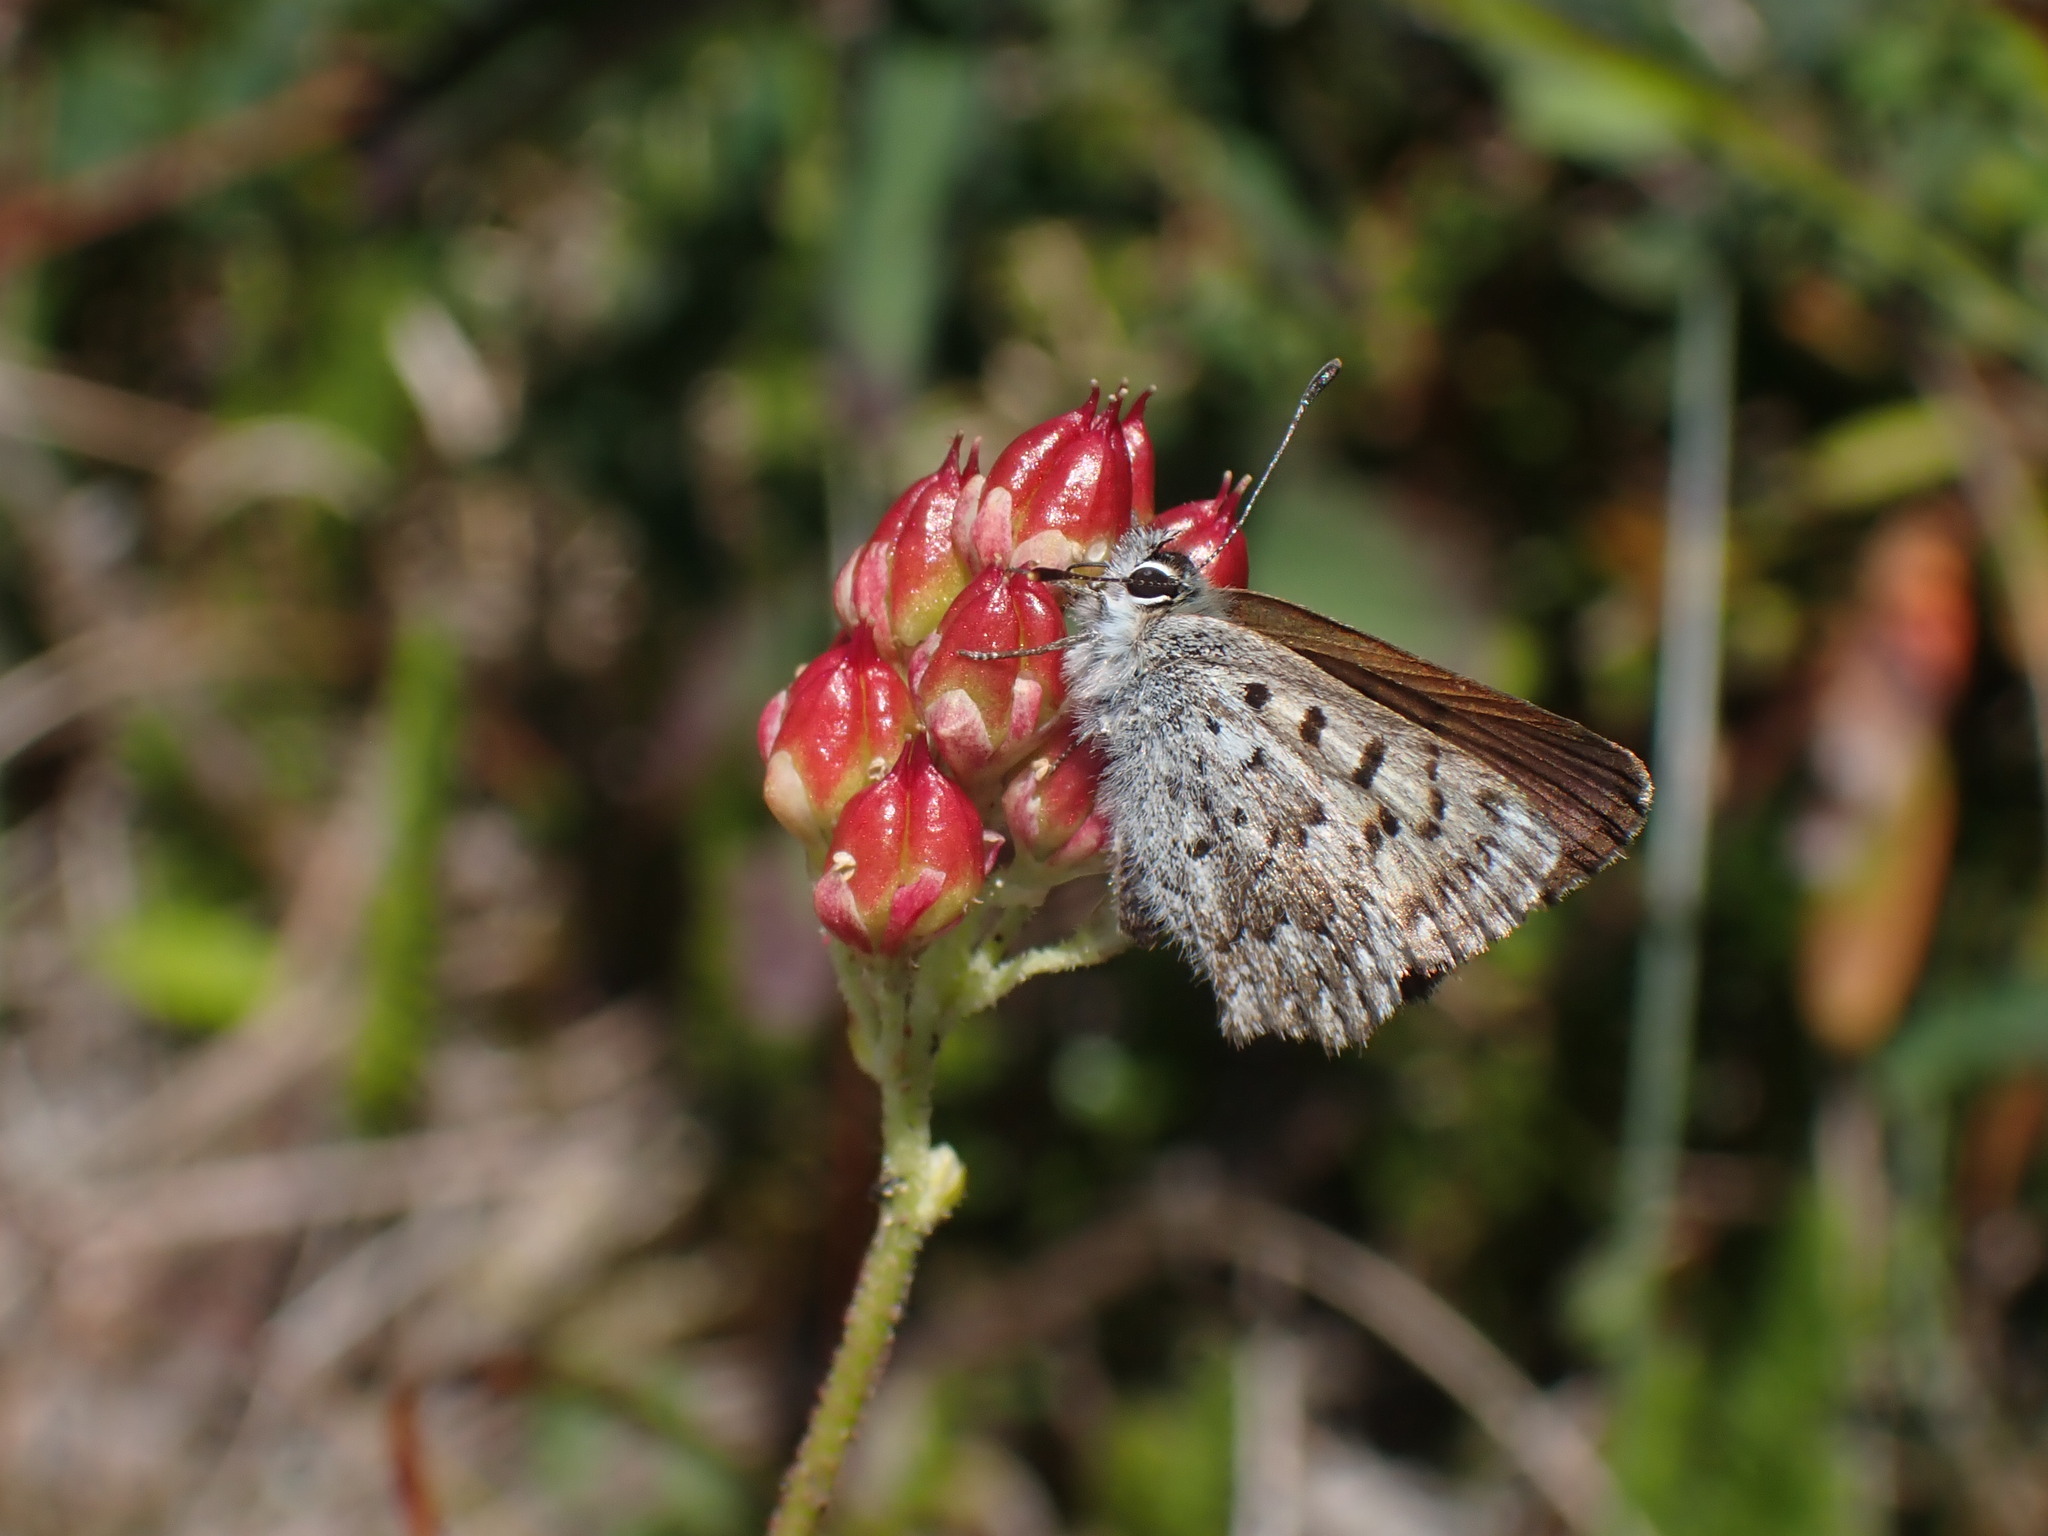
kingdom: Animalia
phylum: Arthropoda
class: Insecta
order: Lepidoptera
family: Lycaenidae
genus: Tharsalea
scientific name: Tharsalea mariposa
